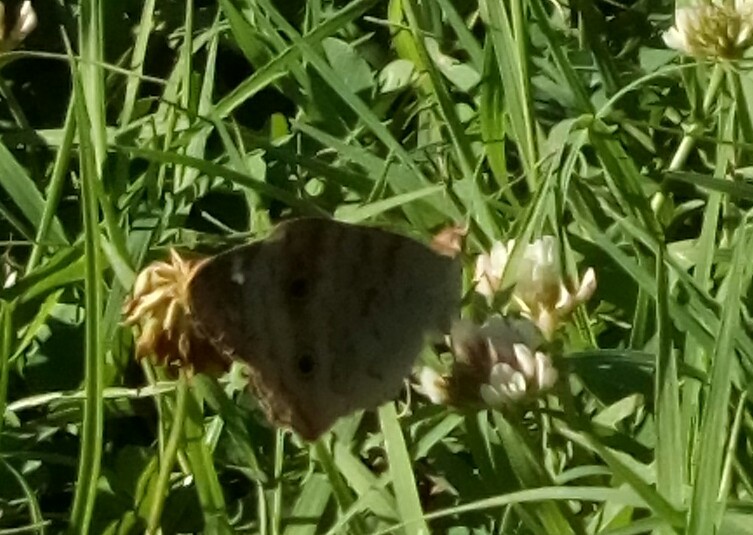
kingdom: Animalia
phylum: Arthropoda
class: Insecta
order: Lepidoptera
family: Nymphalidae
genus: Junonia
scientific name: Junonia coenia
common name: Common buckeye
